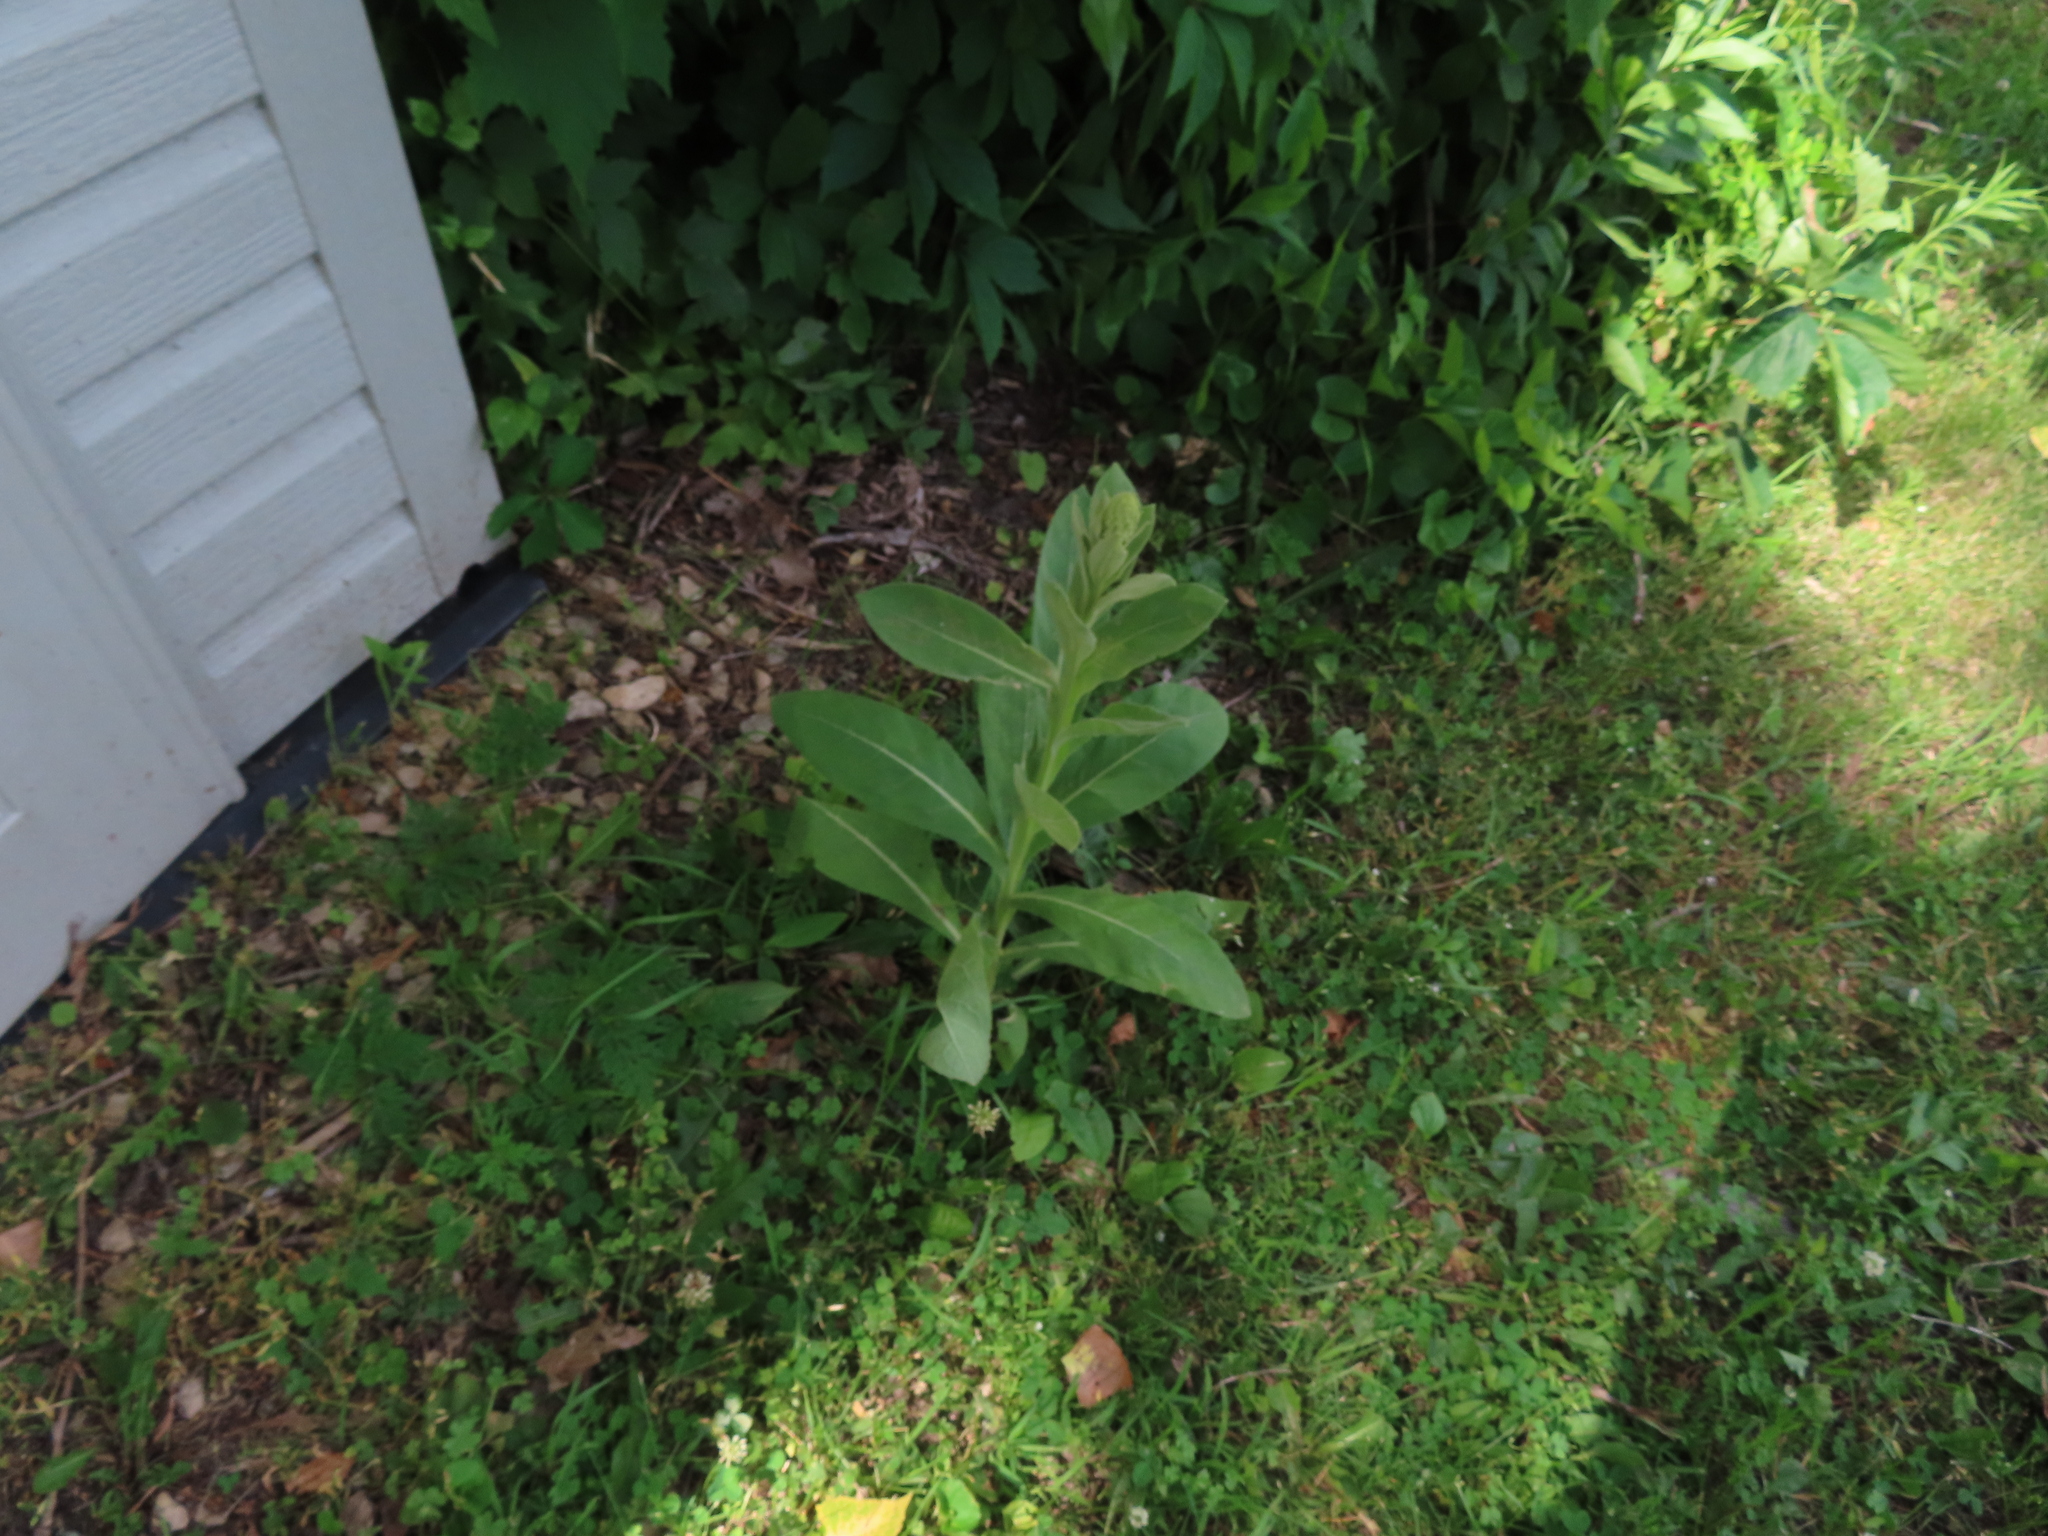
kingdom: Plantae
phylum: Tracheophyta
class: Magnoliopsida
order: Lamiales
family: Scrophulariaceae
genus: Verbascum
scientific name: Verbascum thapsus
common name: Common mullein
